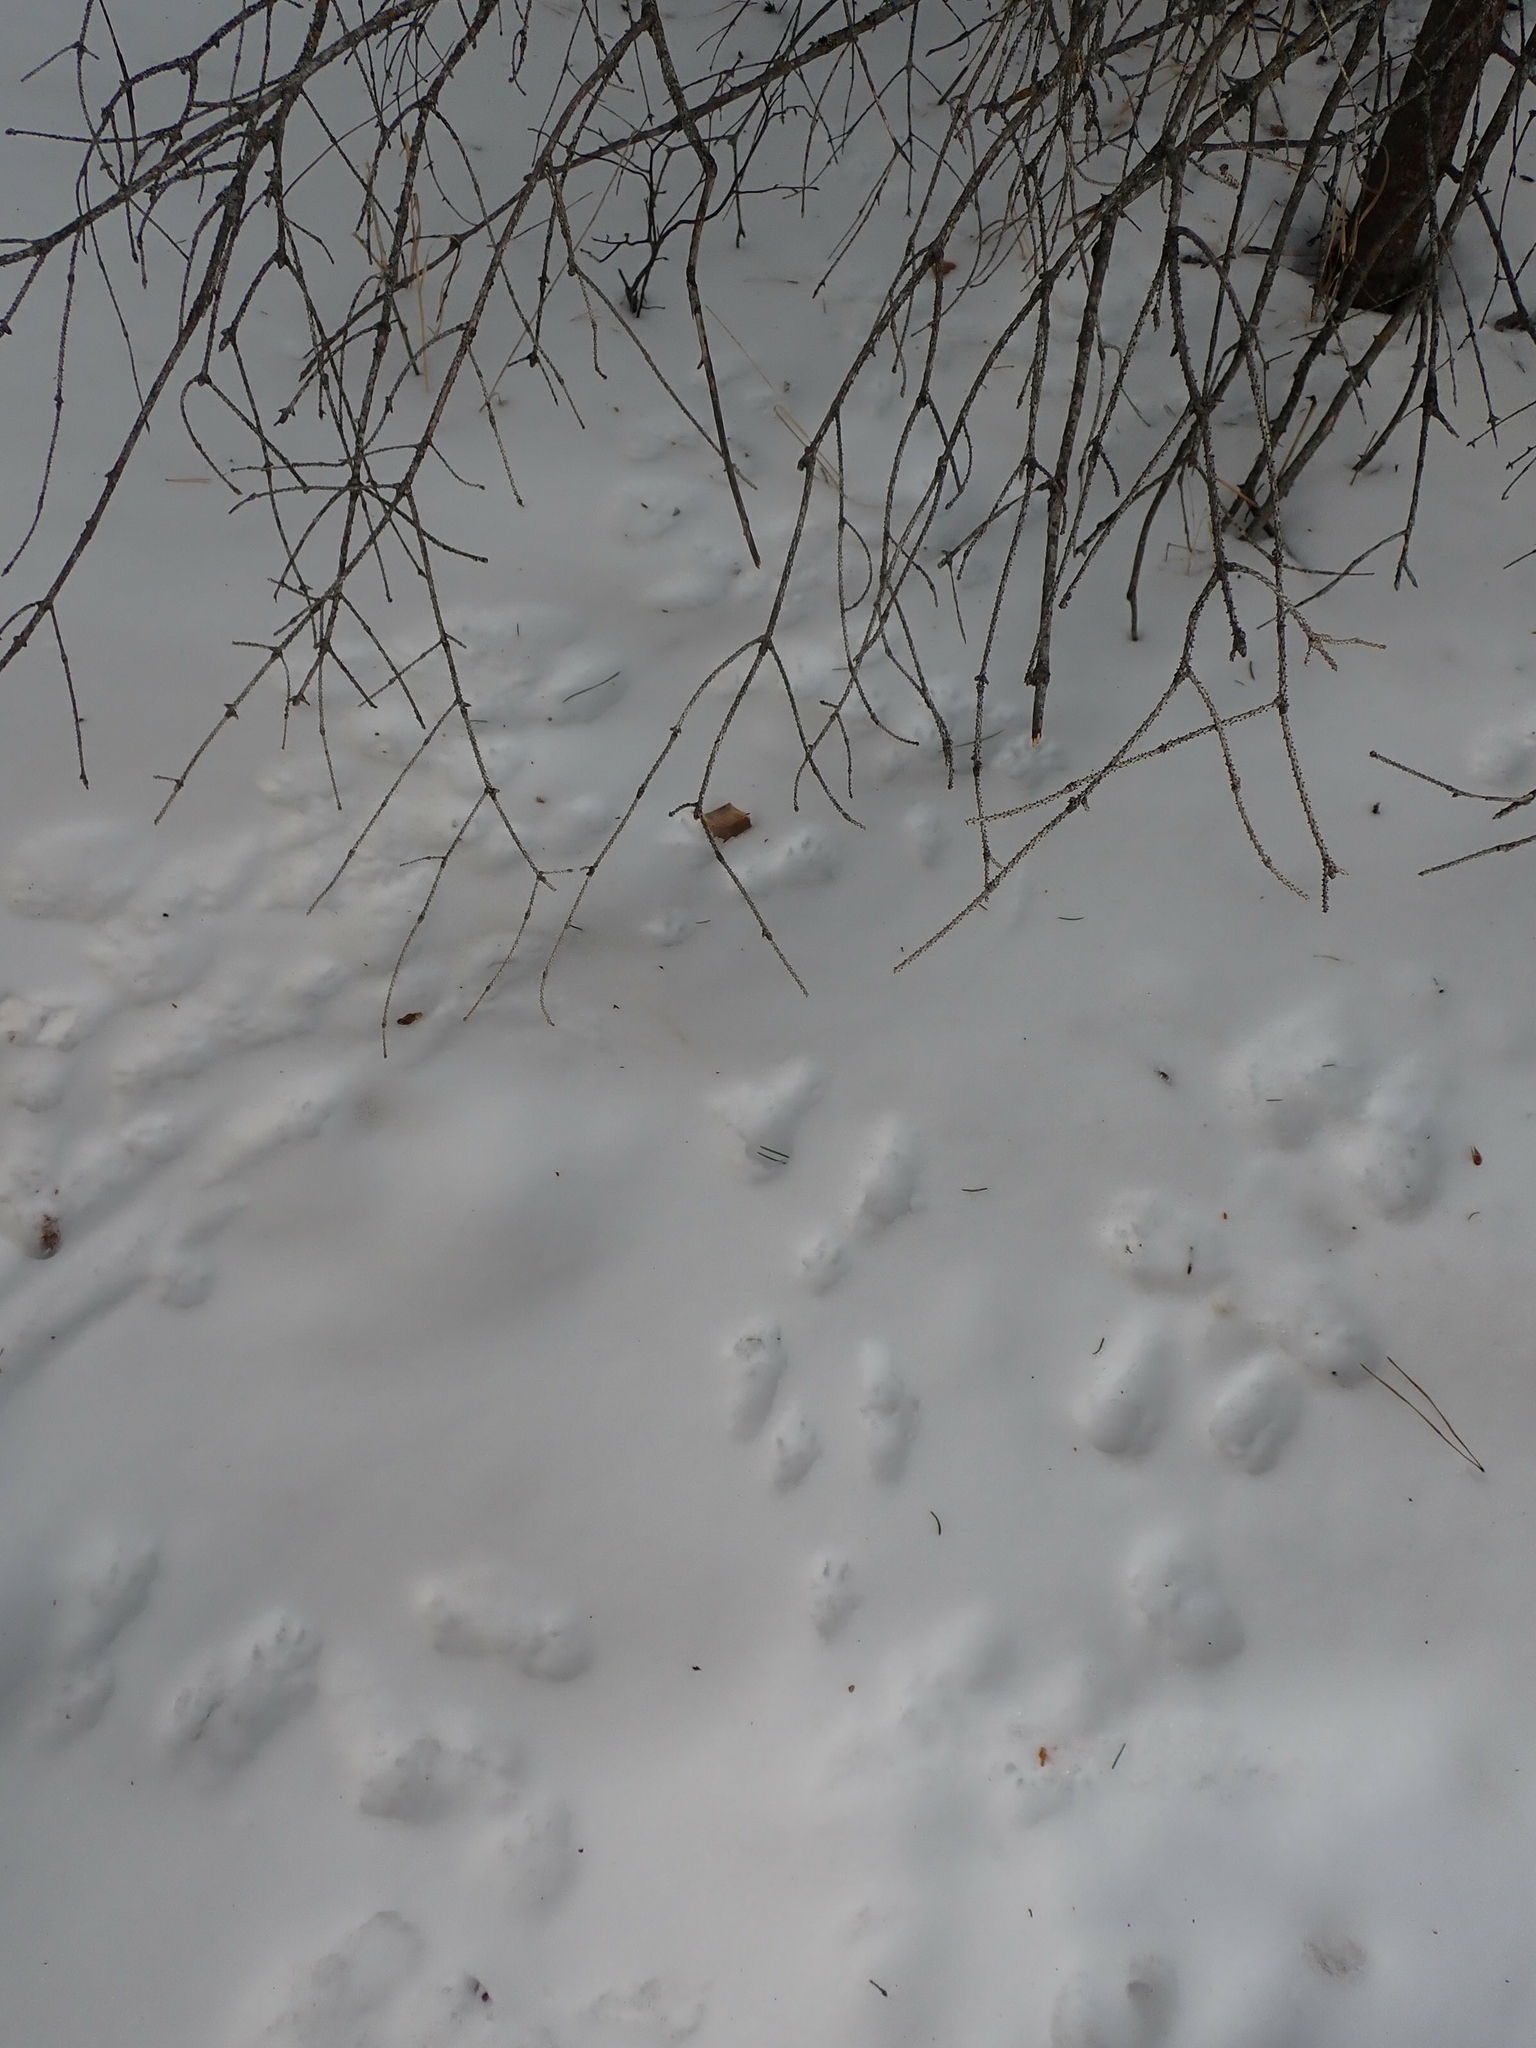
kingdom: Animalia
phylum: Chordata
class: Mammalia
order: Rodentia
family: Sciuridae
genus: Tamiasciurus
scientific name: Tamiasciurus hudsonicus
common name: Red squirrel
